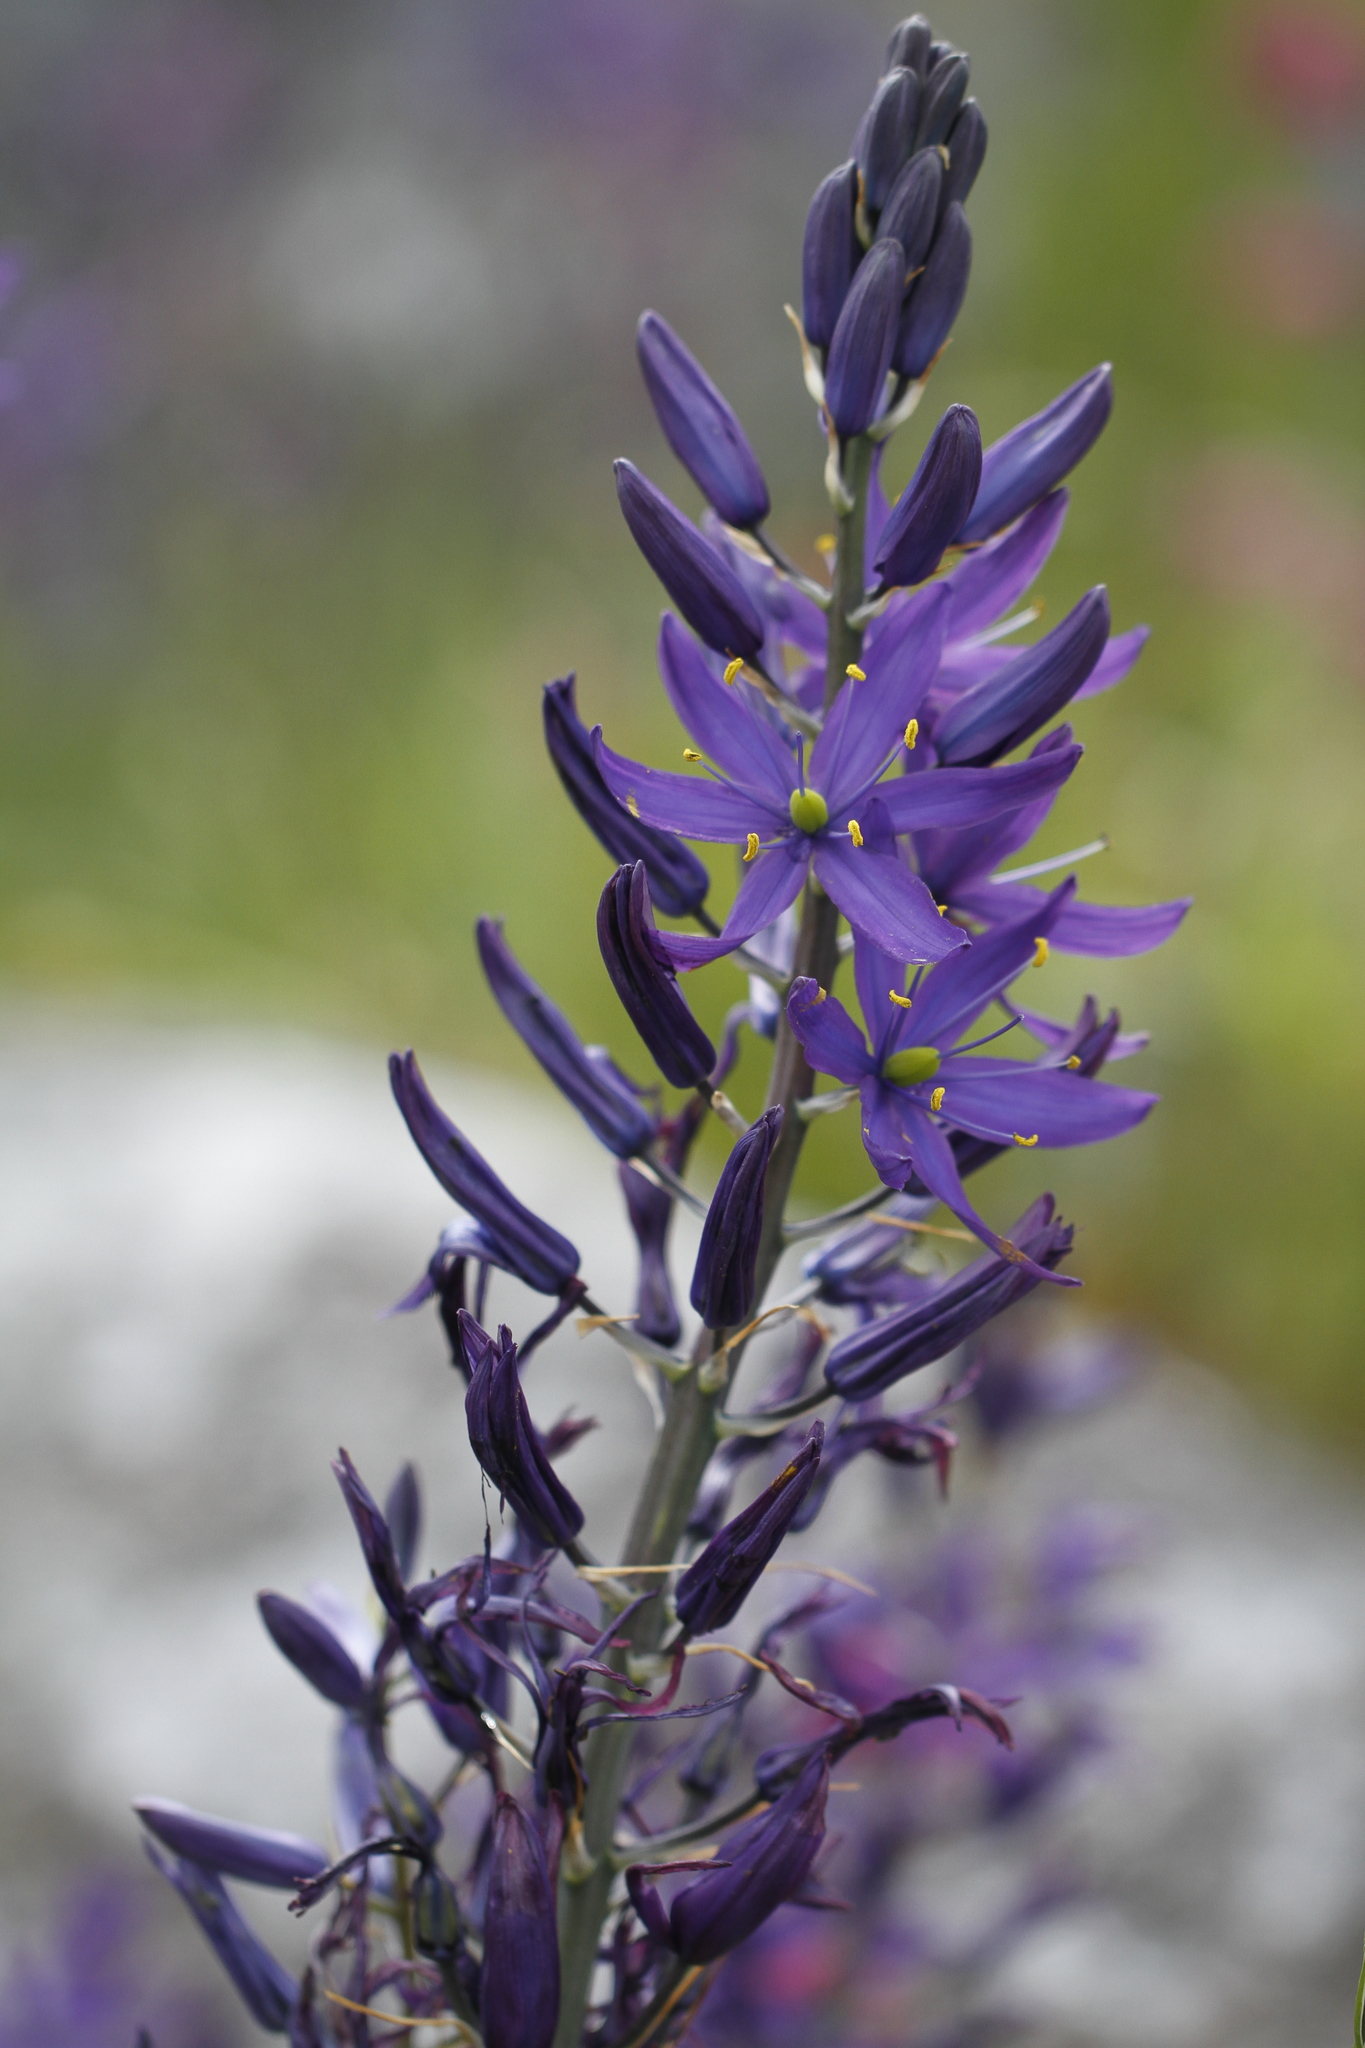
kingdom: Plantae
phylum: Tracheophyta
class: Liliopsida
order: Asparagales
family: Asparagaceae
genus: Camassia
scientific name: Camassia leichtlinii
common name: Leichtlin's camas
